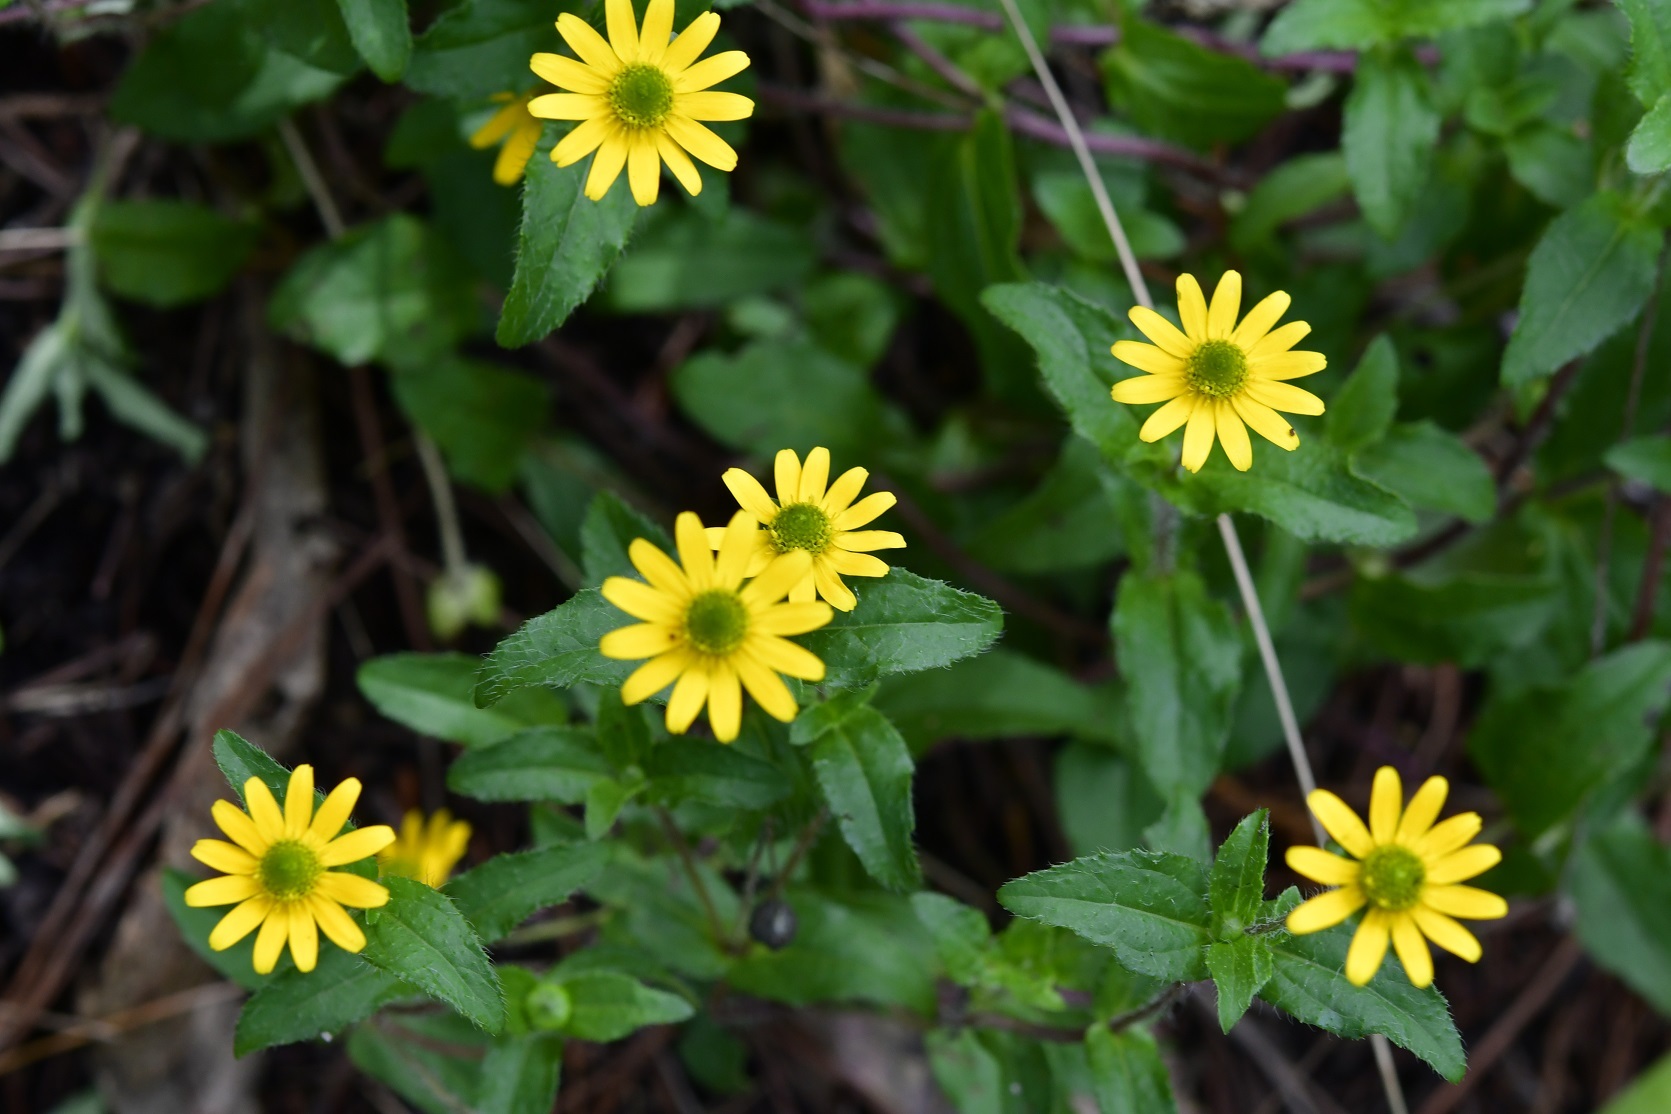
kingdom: Plantae
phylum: Tracheophyta
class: Magnoliopsida
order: Asterales
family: Asteraceae
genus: Melampodium
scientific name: Melampodium montanum
